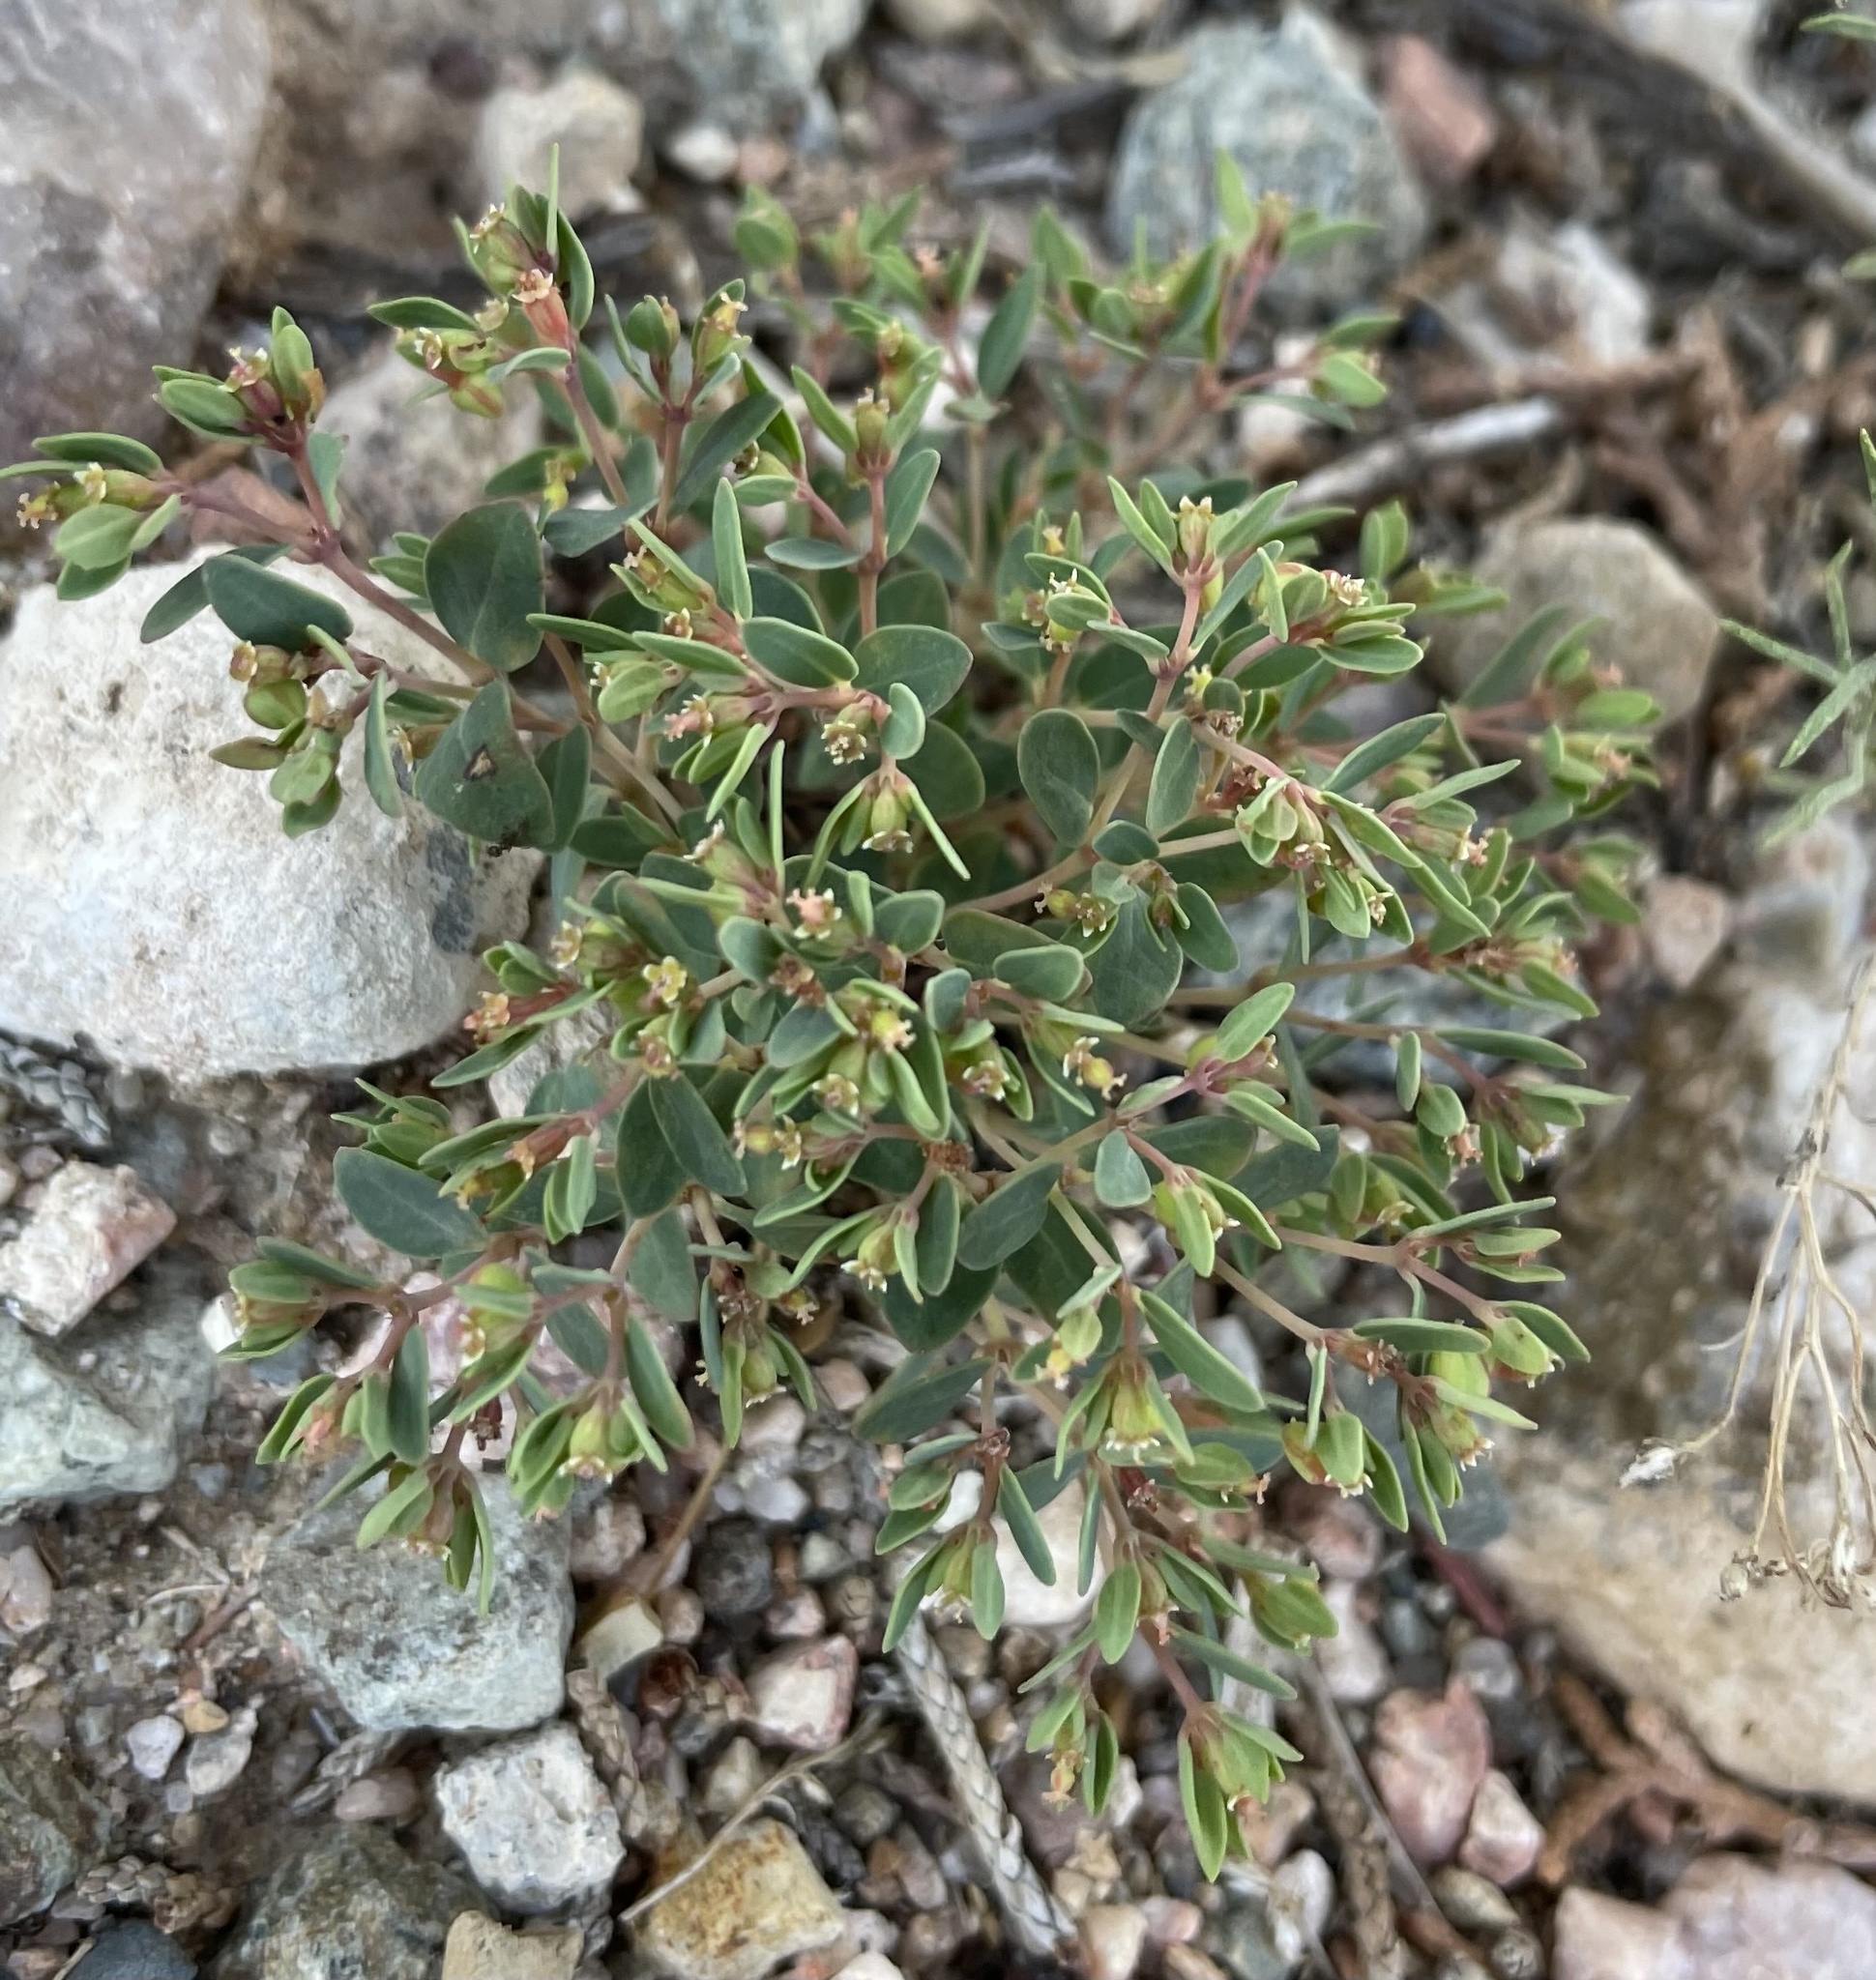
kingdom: Plantae
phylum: Tracheophyta
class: Magnoliopsida
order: Malpighiales
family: Euphorbiaceae
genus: Euphorbia
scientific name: Euphorbia fendleri
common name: Fendler's euphorbia
